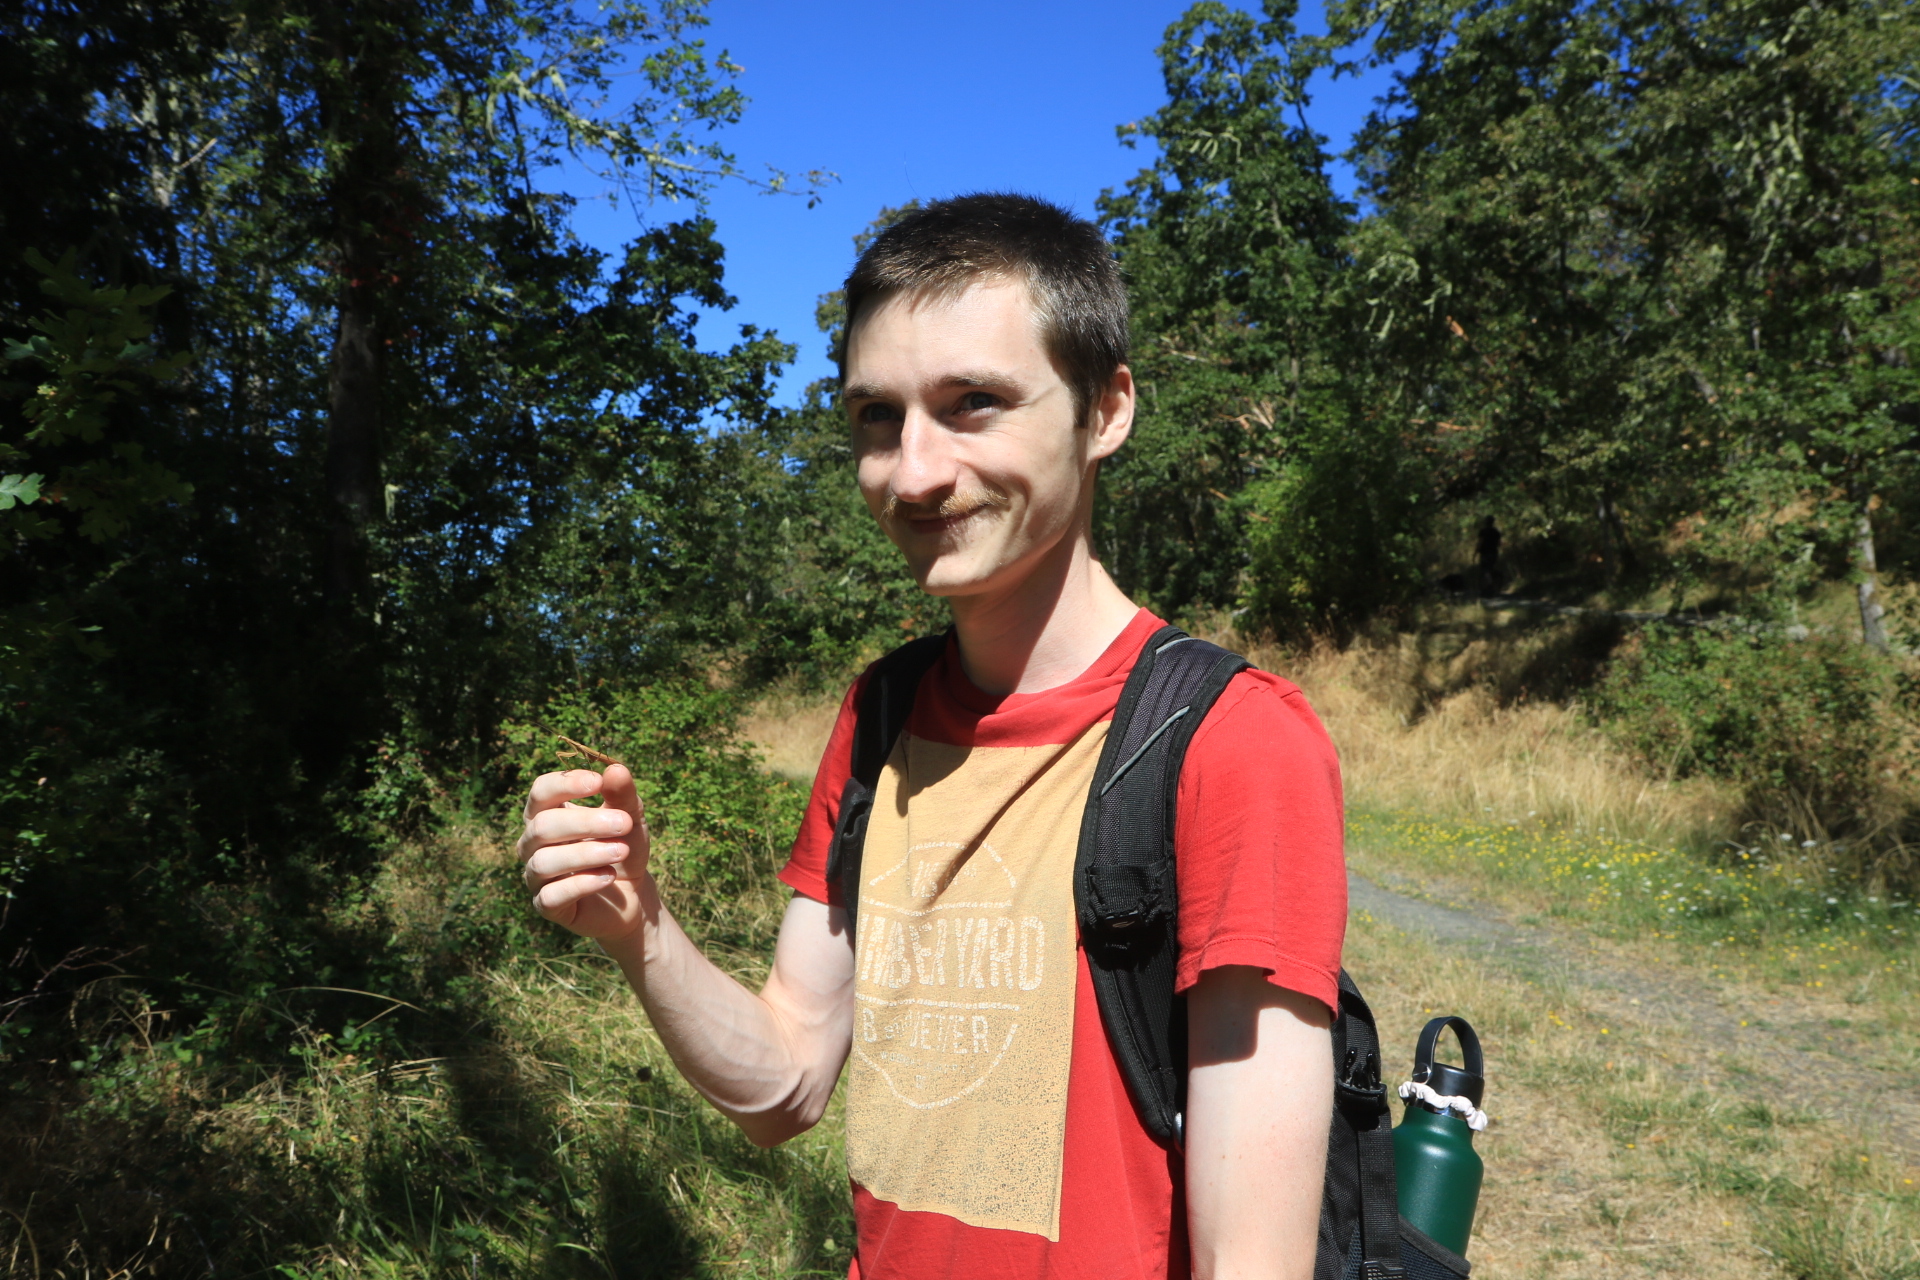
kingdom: Animalia
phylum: Arthropoda
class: Insecta
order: Mantodea
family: Mantidae
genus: Mantis
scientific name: Mantis religiosa
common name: Praying mantis
